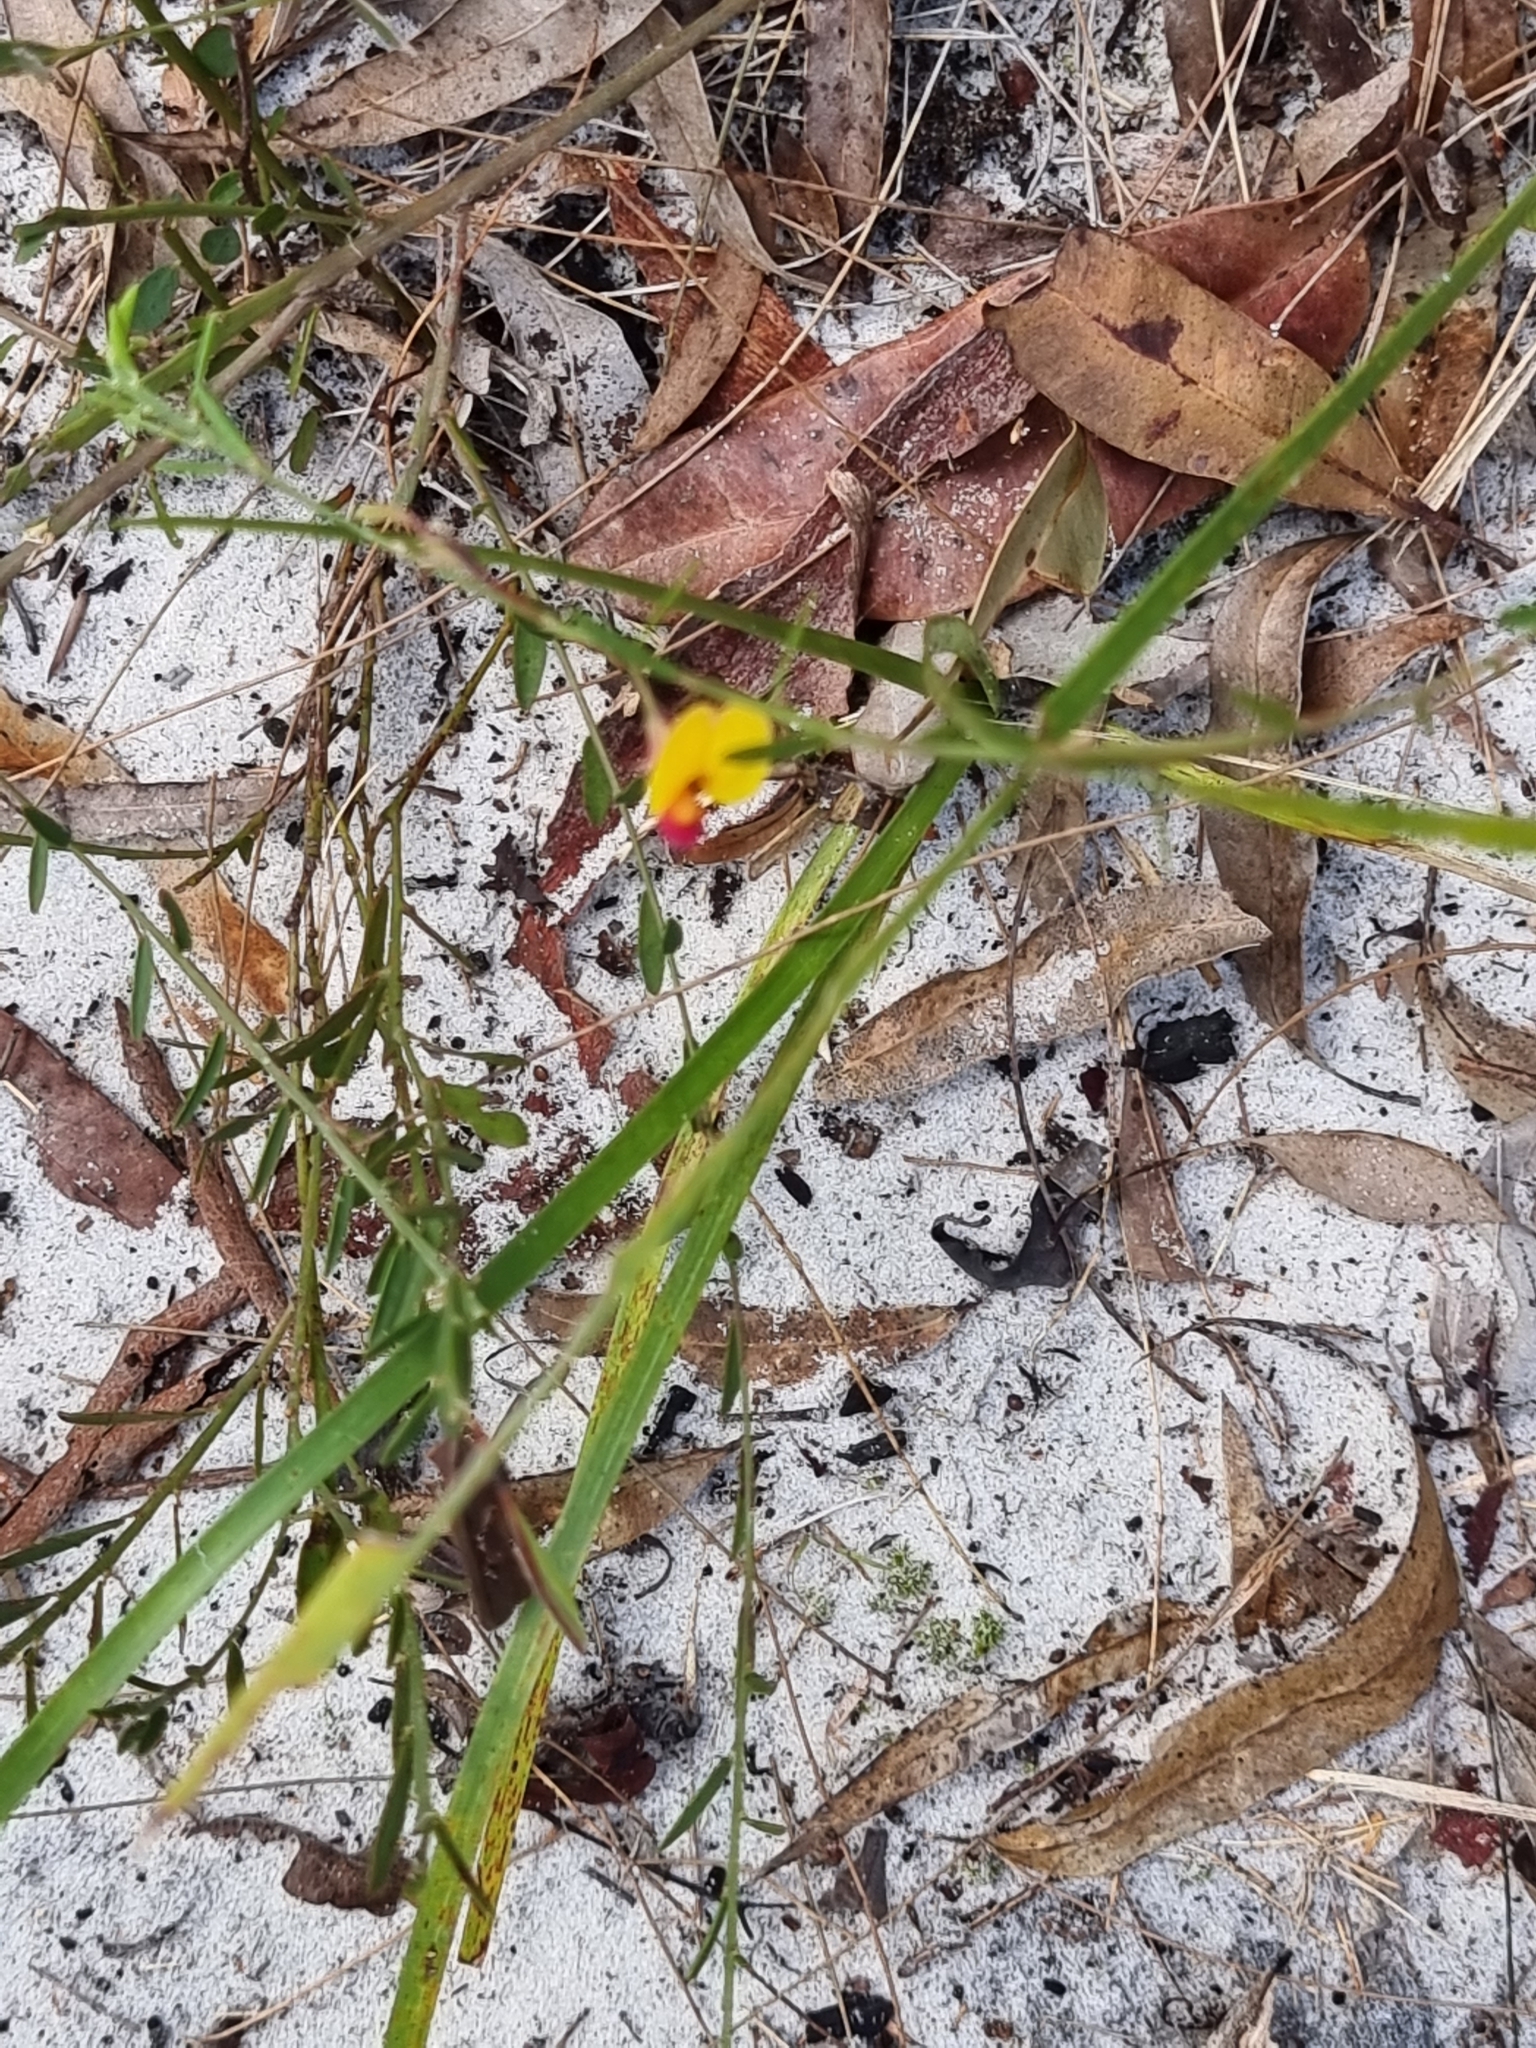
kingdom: Plantae
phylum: Tracheophyta
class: Magnoliopsida
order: Fabales
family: Fabaceae
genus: Bossiaea
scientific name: Bossiaea heterophylla
